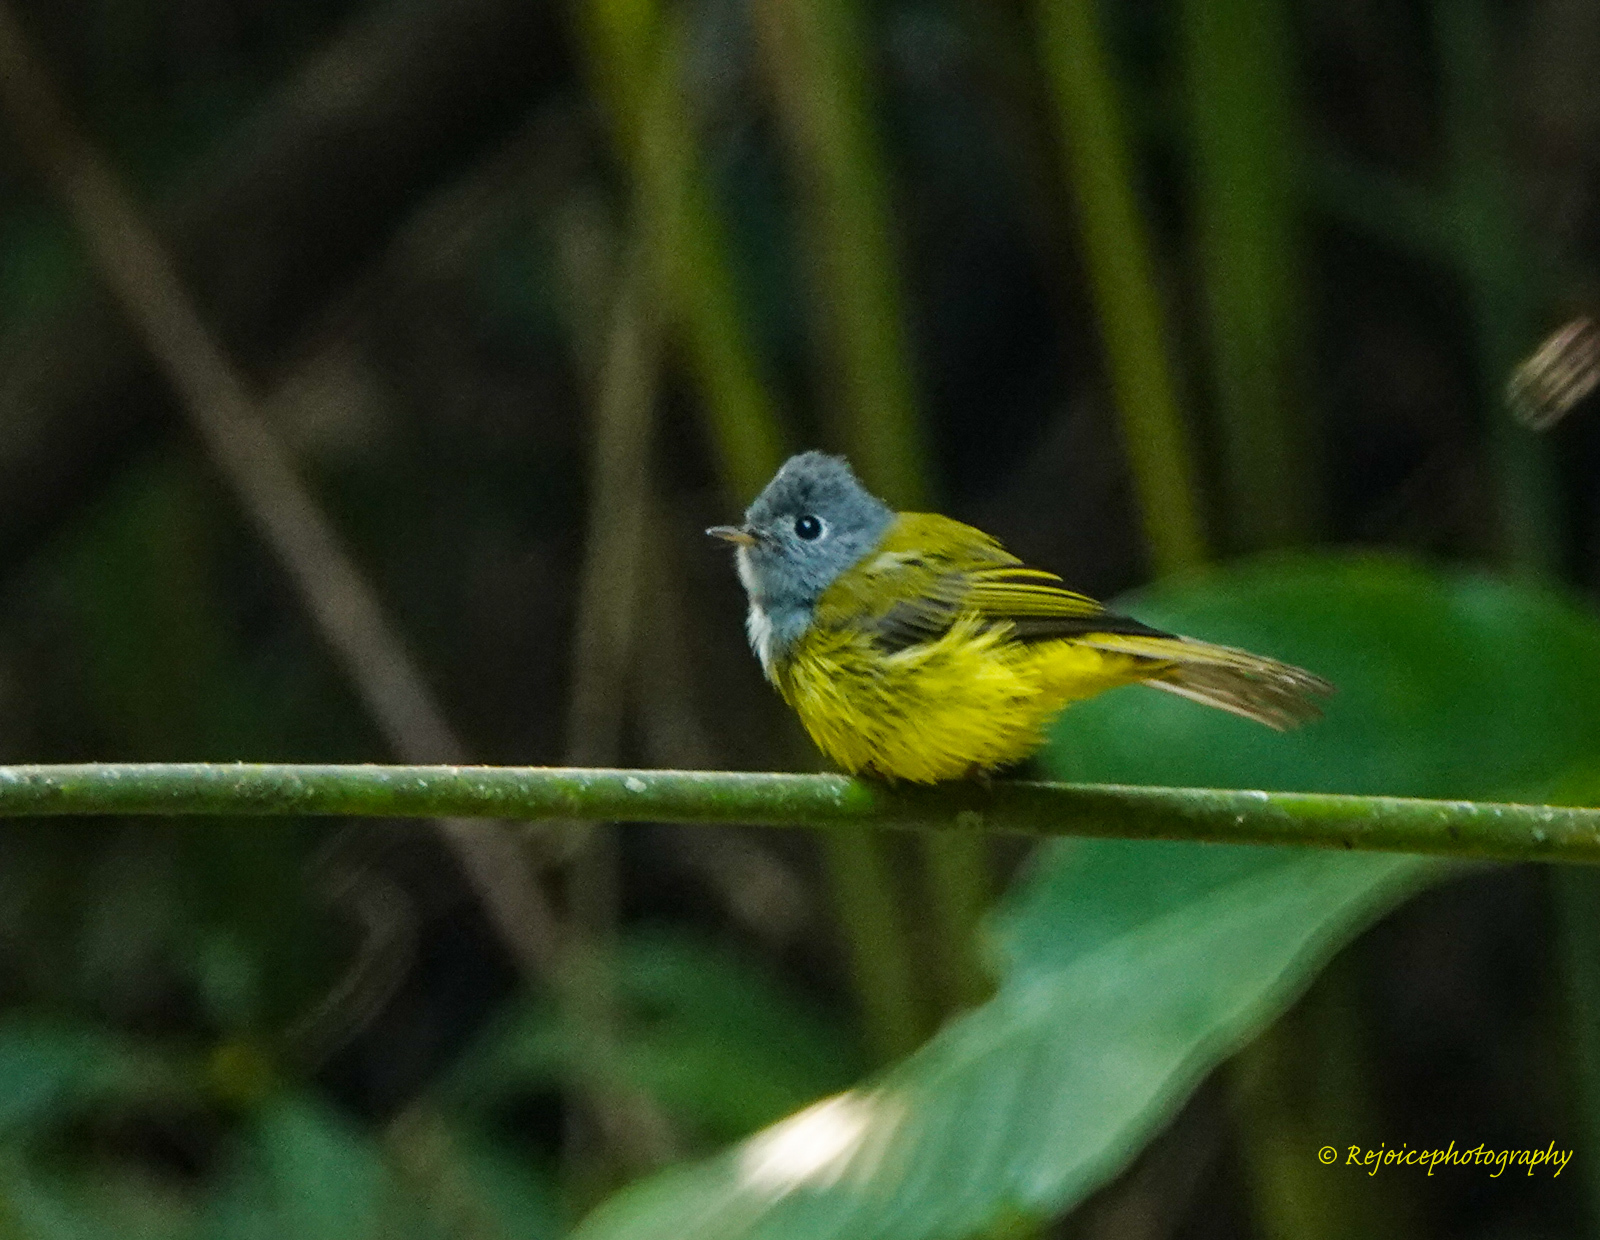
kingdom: Animalia
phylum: Chordata
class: Aves
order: Passeriformes
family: Stenostiridae
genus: Culicicapa
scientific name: Culicicapa ceylonensis
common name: Grey-headed canary-flycatcher
